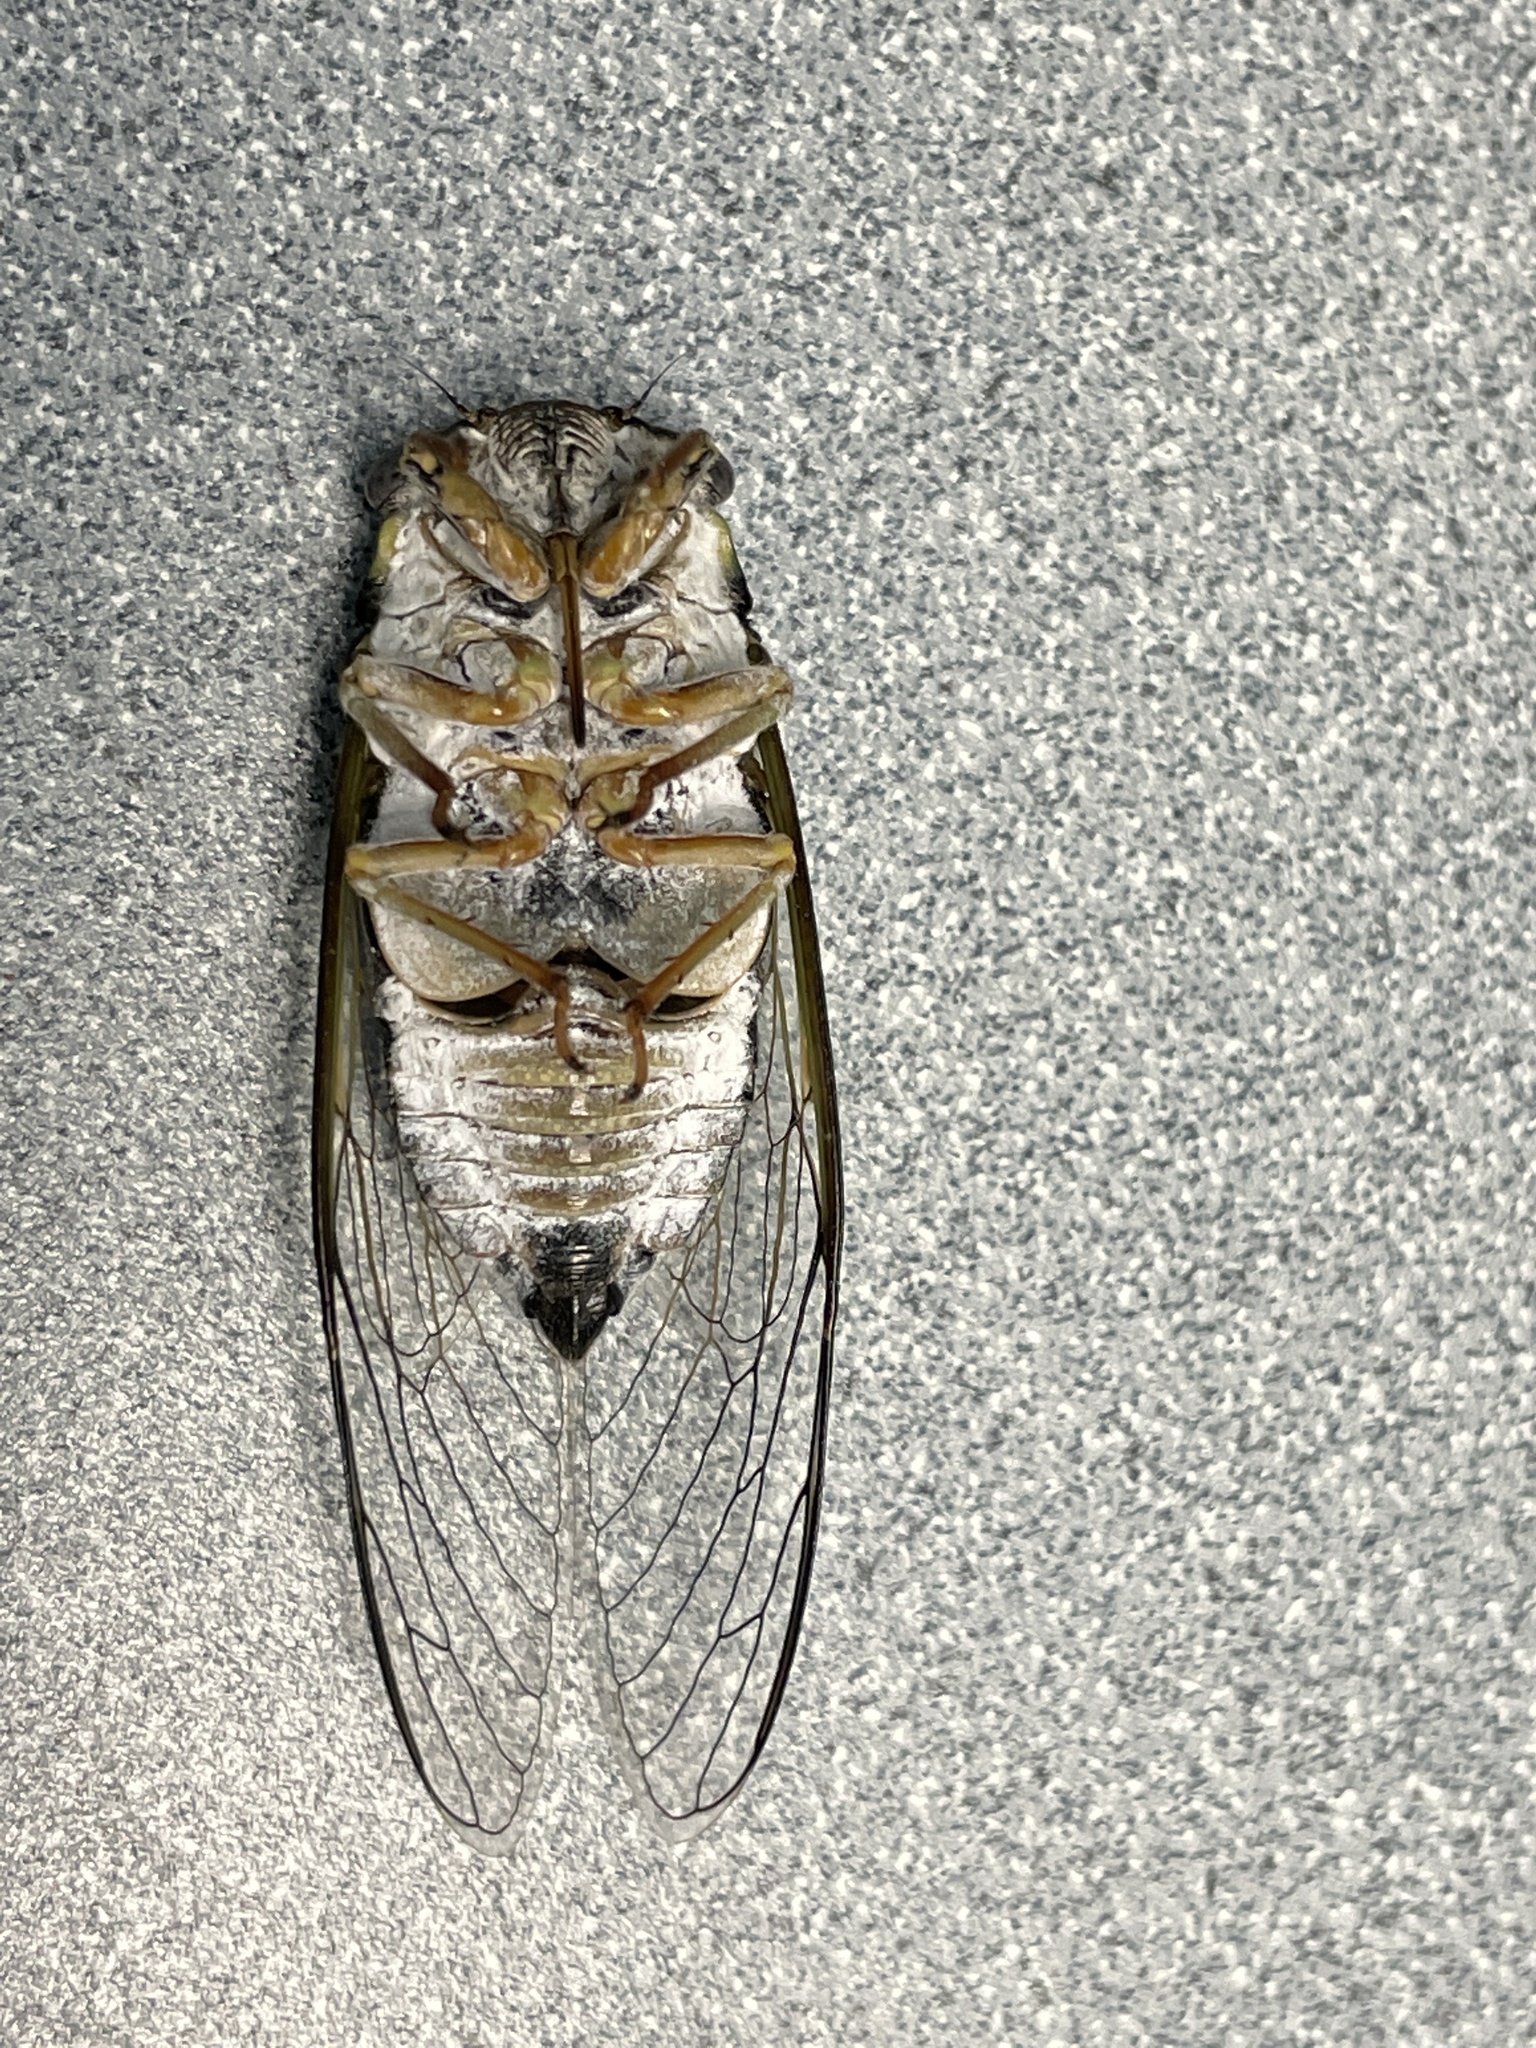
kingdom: Animalia
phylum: Arthropoda
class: Insecta
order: Hemiptera
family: Cicadidae
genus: Diceroprocta
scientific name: Diceroprocta viridifascia
